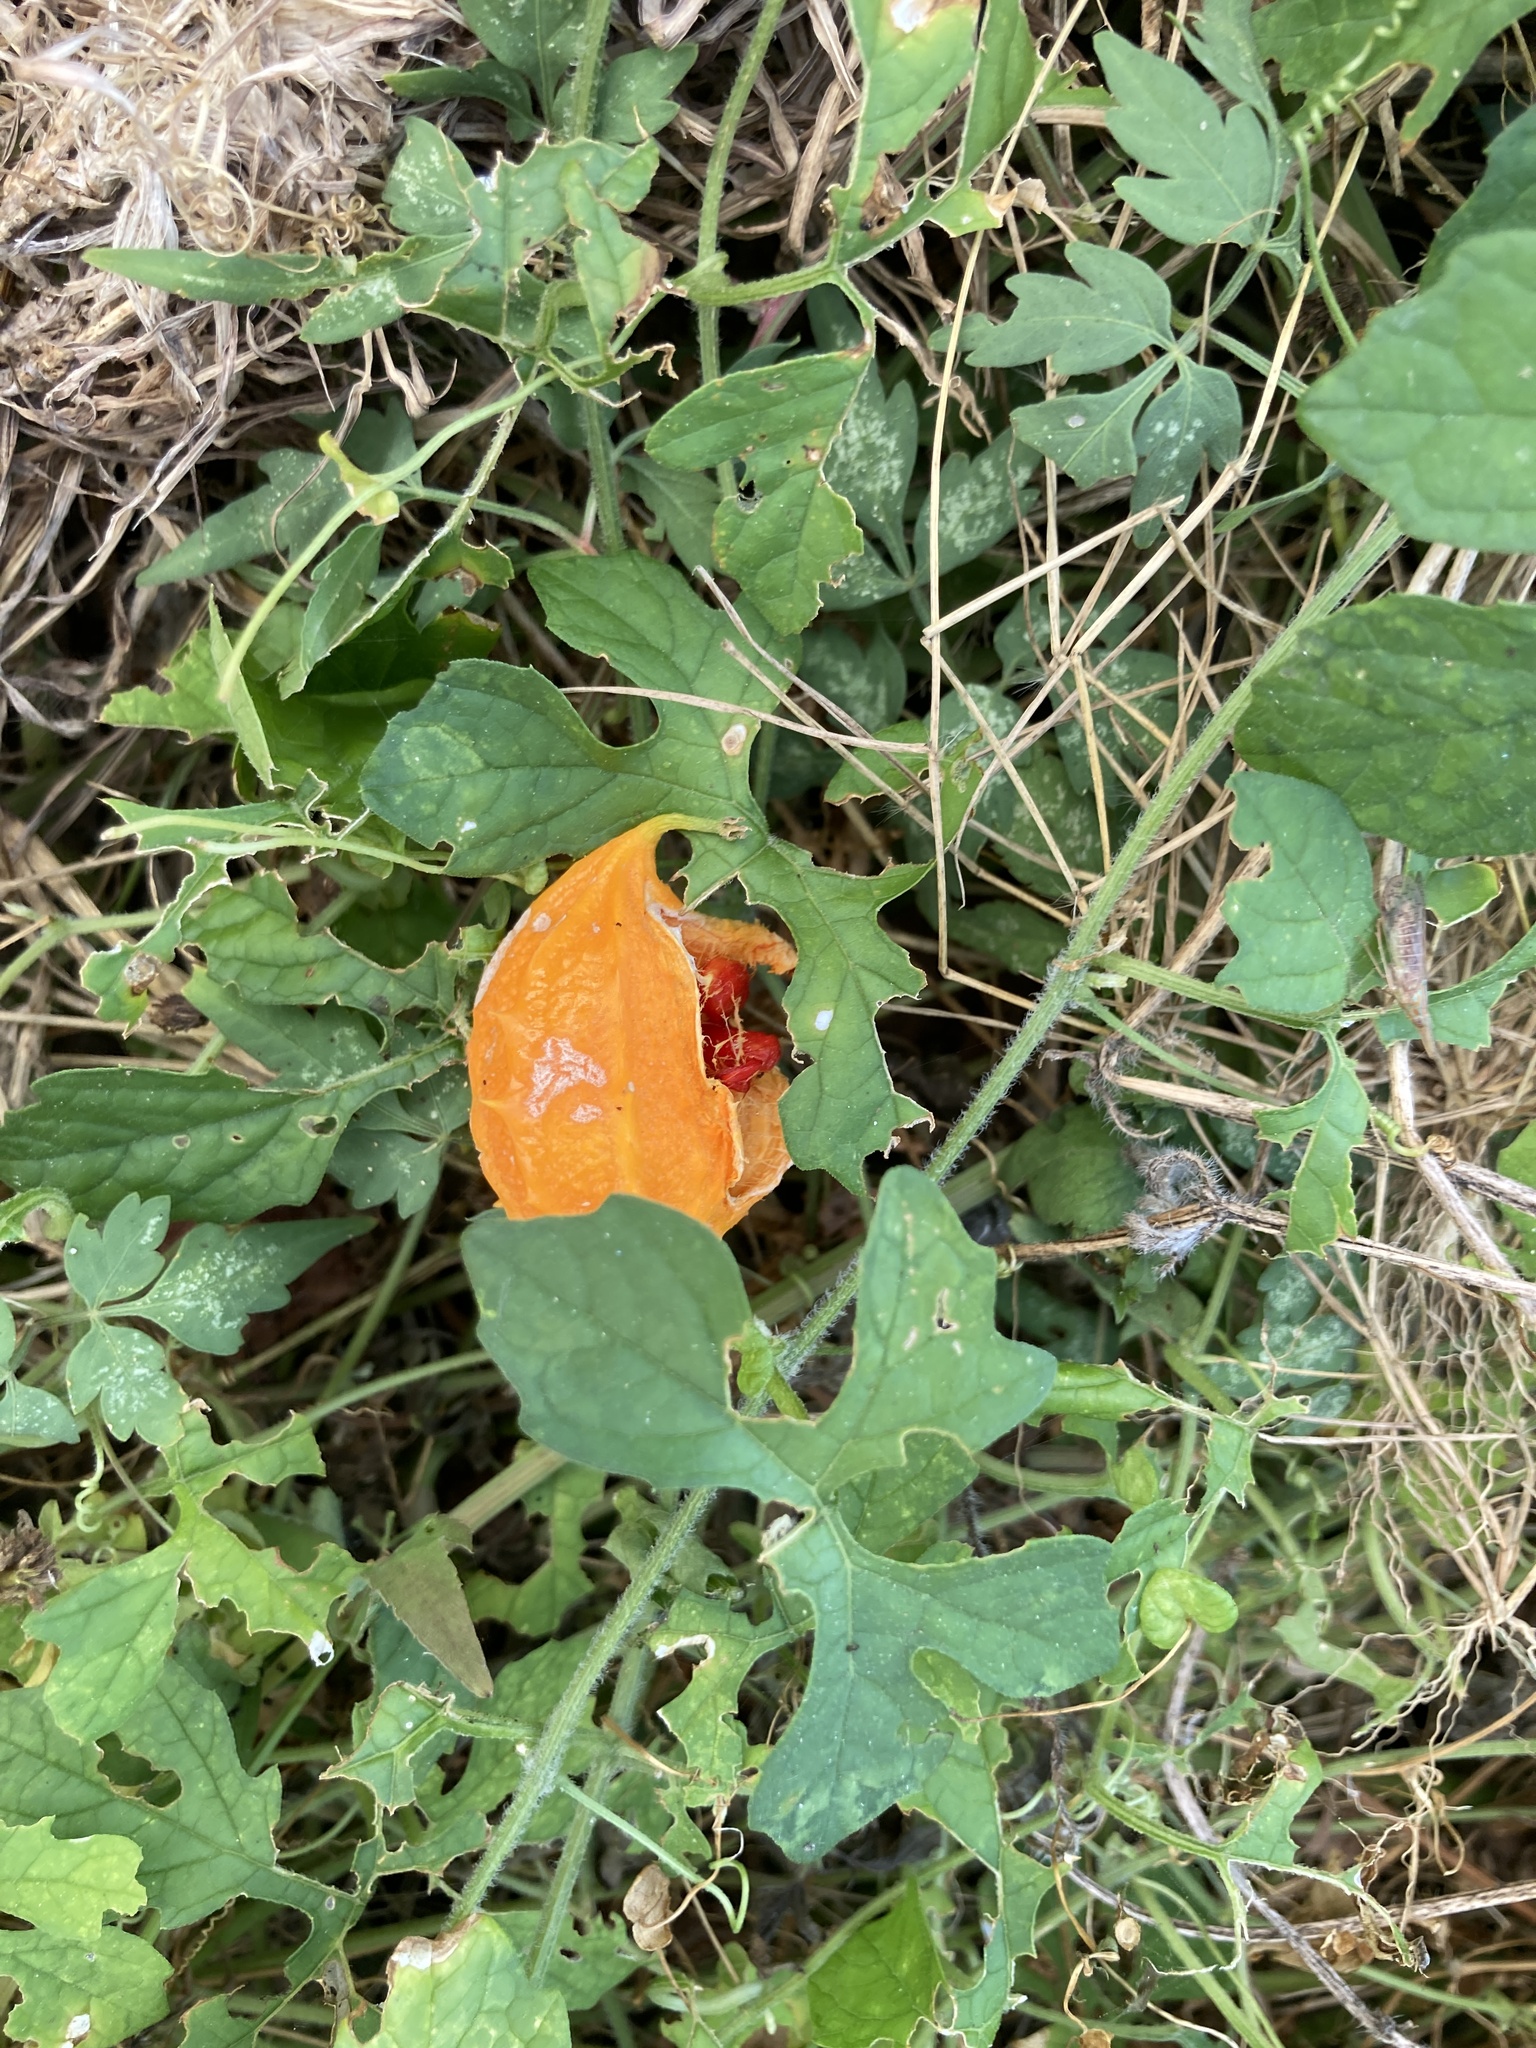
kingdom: Plantae
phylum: Tracheophyta
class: Magnoliopsida
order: Cucurbitales
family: Cucurbitaceae
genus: Momordica
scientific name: Momordica charantia
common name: Balsampear
